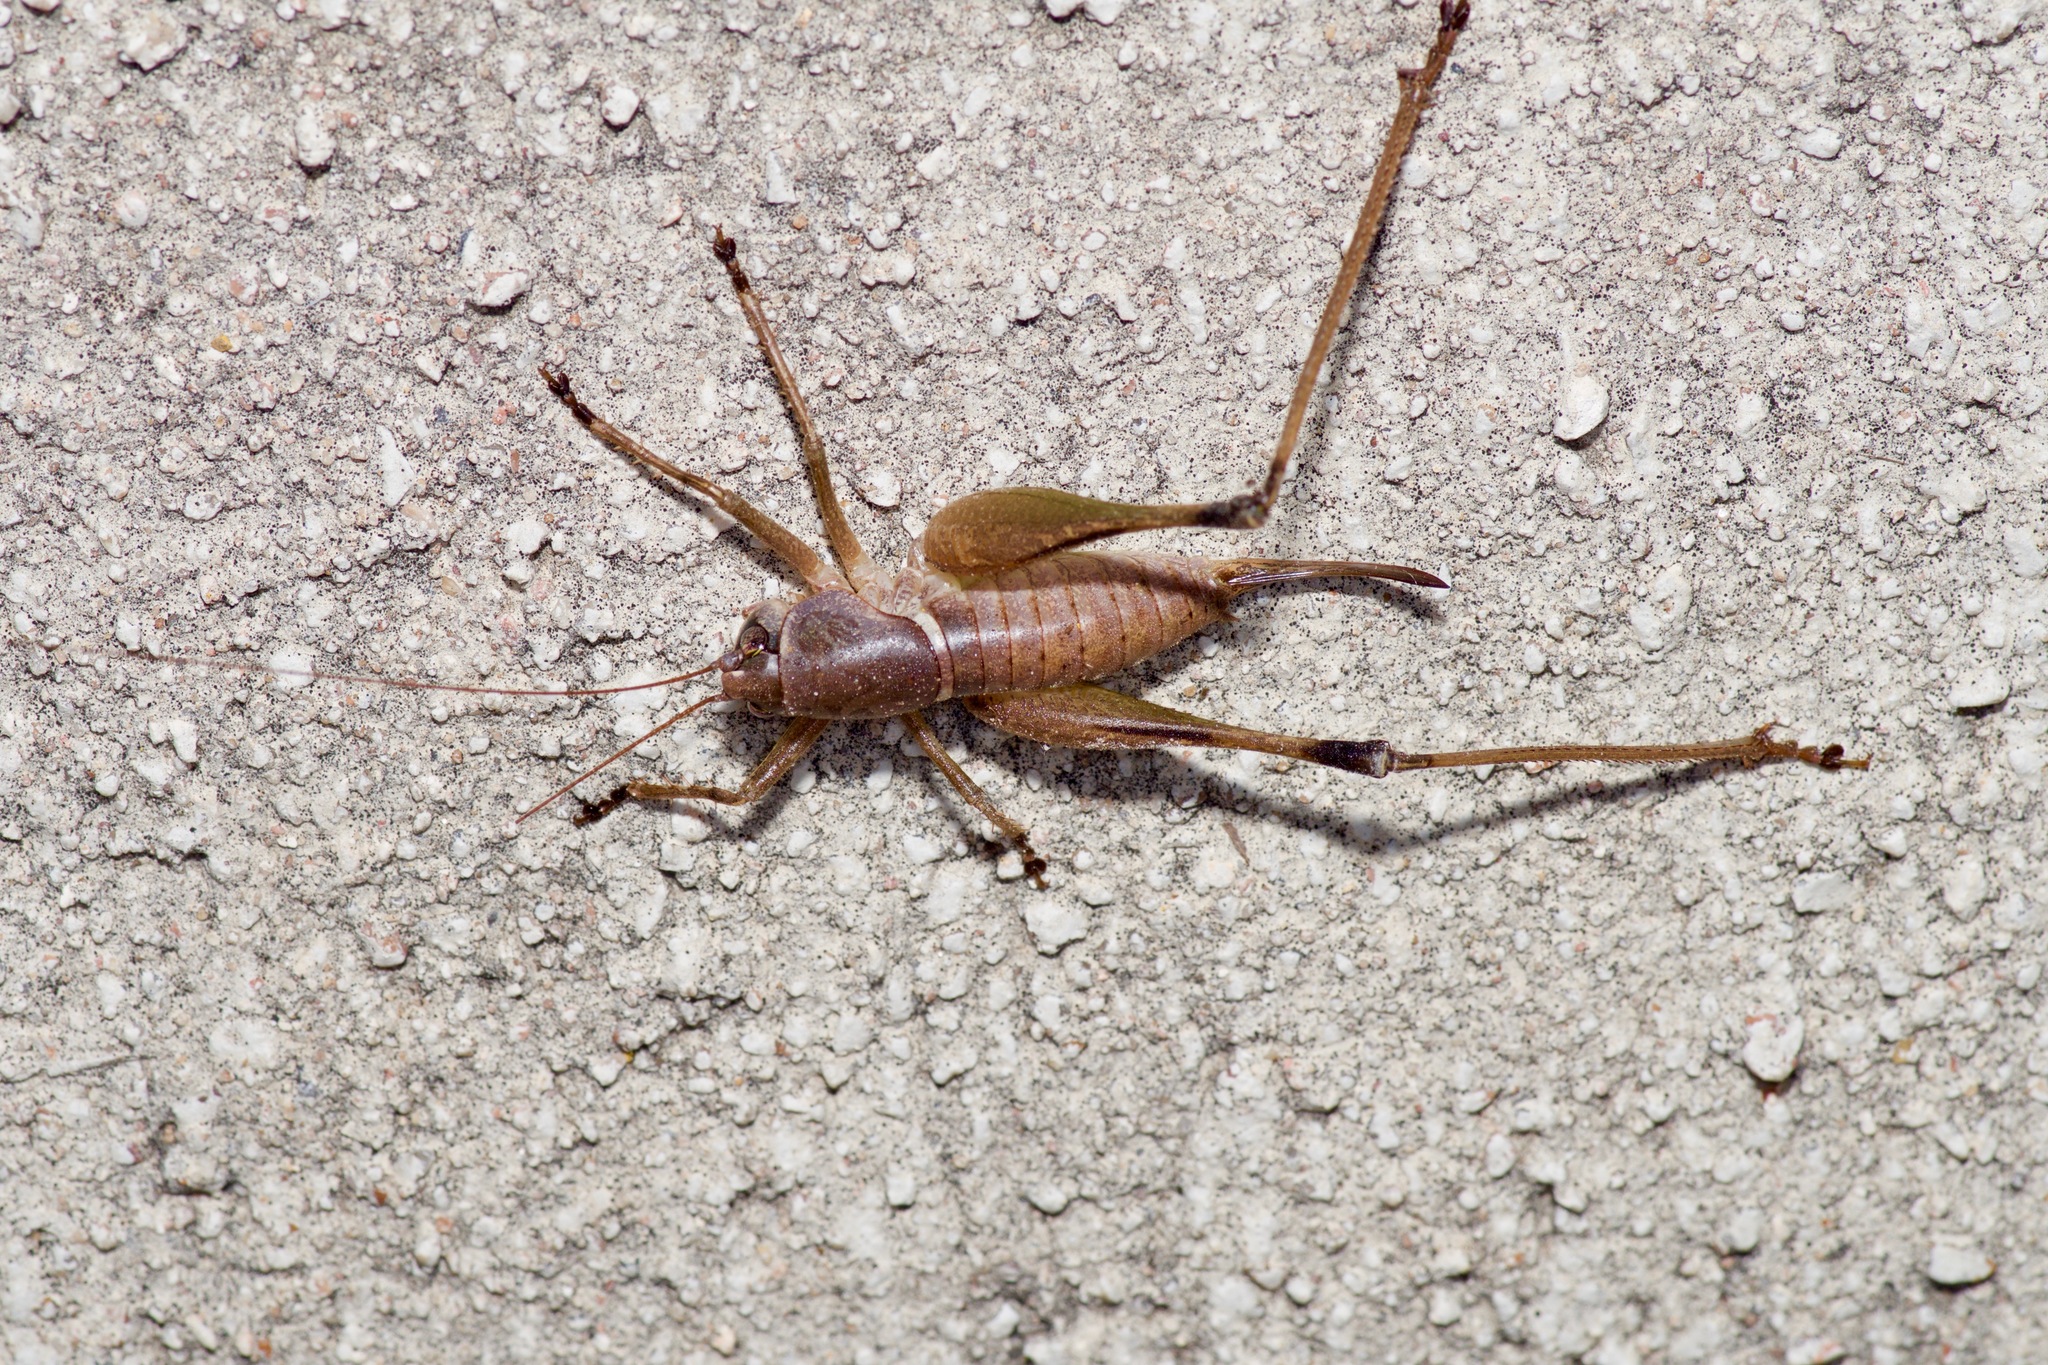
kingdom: Animalia
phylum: Arthropoda
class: Insecta
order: Orthoptera
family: Tettigoniidae
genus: Pediodectes
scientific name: Pediodectes bruneri
